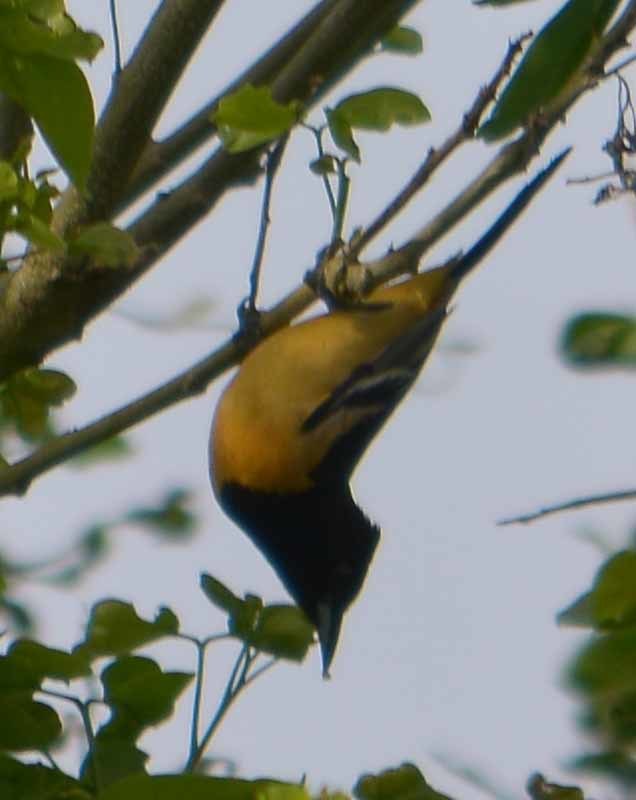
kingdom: Animalia
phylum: Chordata
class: Aves
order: Passeriformes
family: Icteridae
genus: Icterus
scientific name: Icterus galbula
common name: Baltimore oriole
